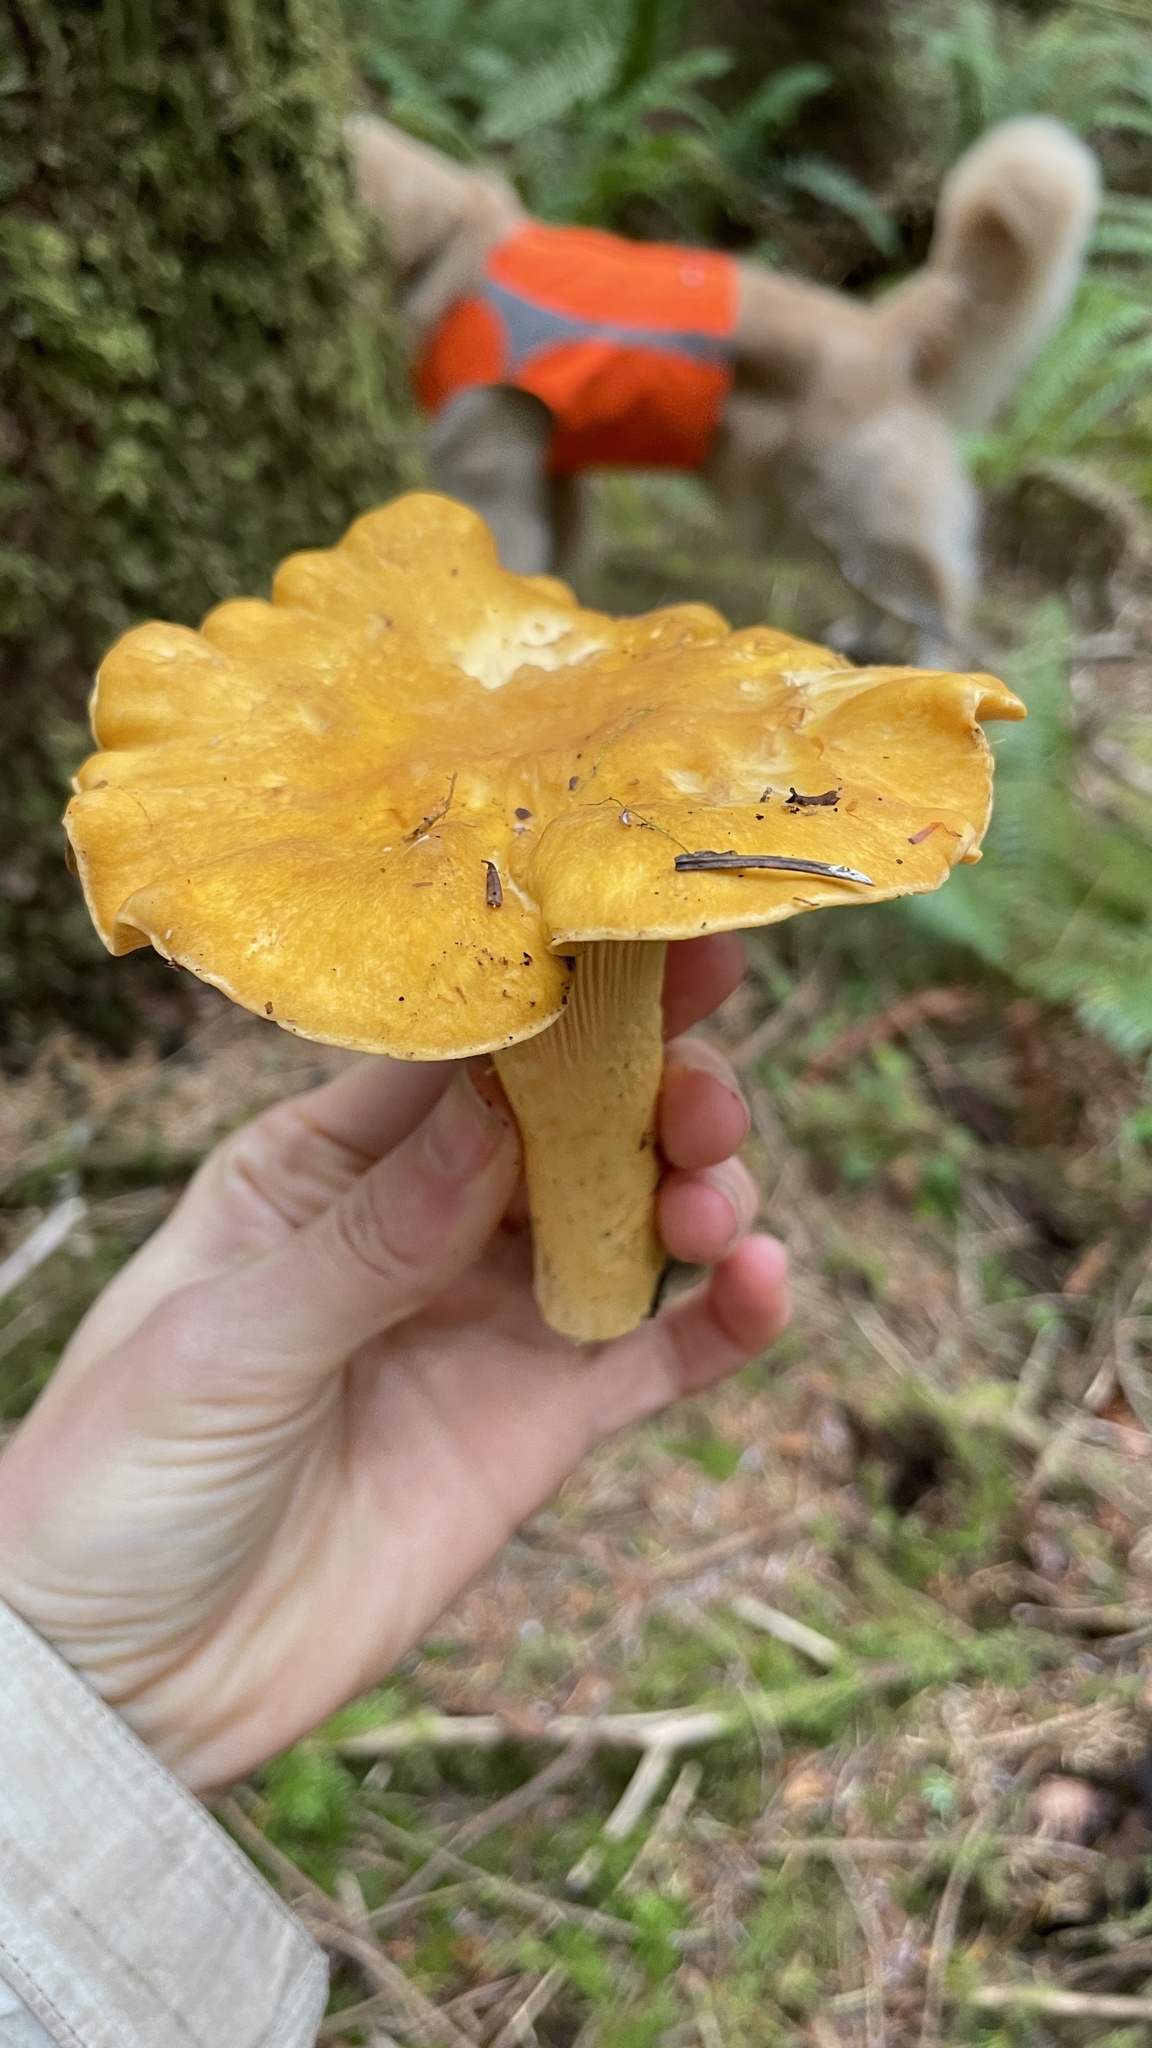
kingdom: Fungi
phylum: Basidiomycota
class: Agaricomycetes
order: Cantharellales
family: Hydnaceae
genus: Cantharellus
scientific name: Cantharellus formosus
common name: Pacific golden chanterelle
